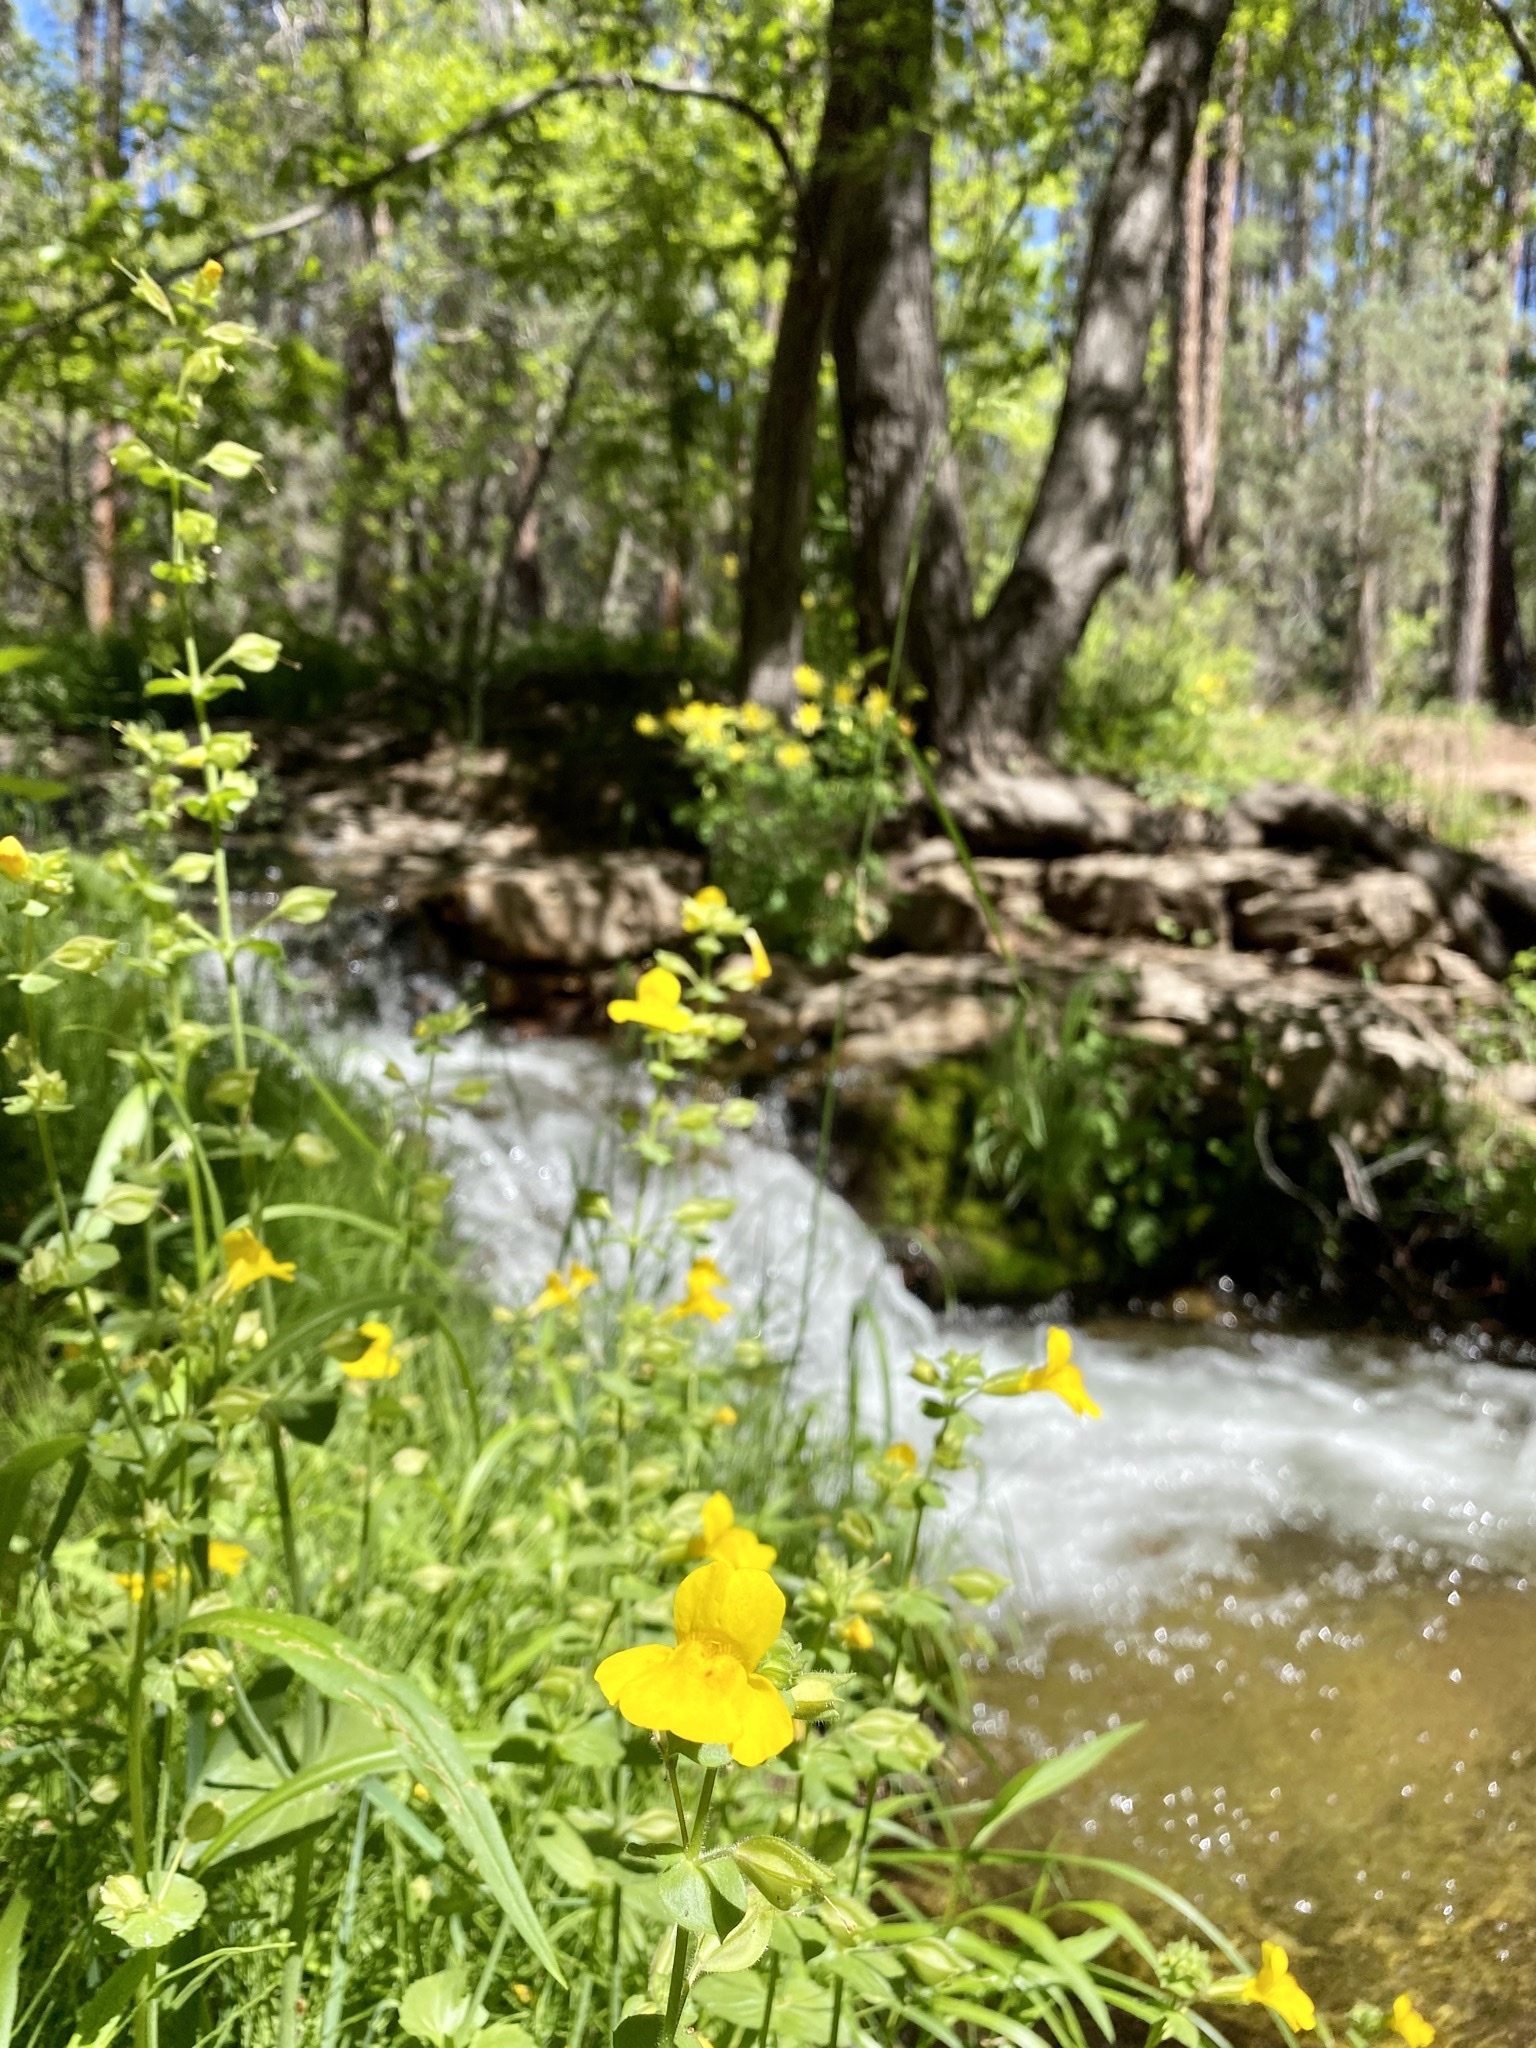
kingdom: Plantae
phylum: Tracheophyta
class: Magnoliopsida
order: Lamiales
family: Phrymaceae
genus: Erythranthe
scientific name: Erythranthe guttata
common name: Monkeyflower
